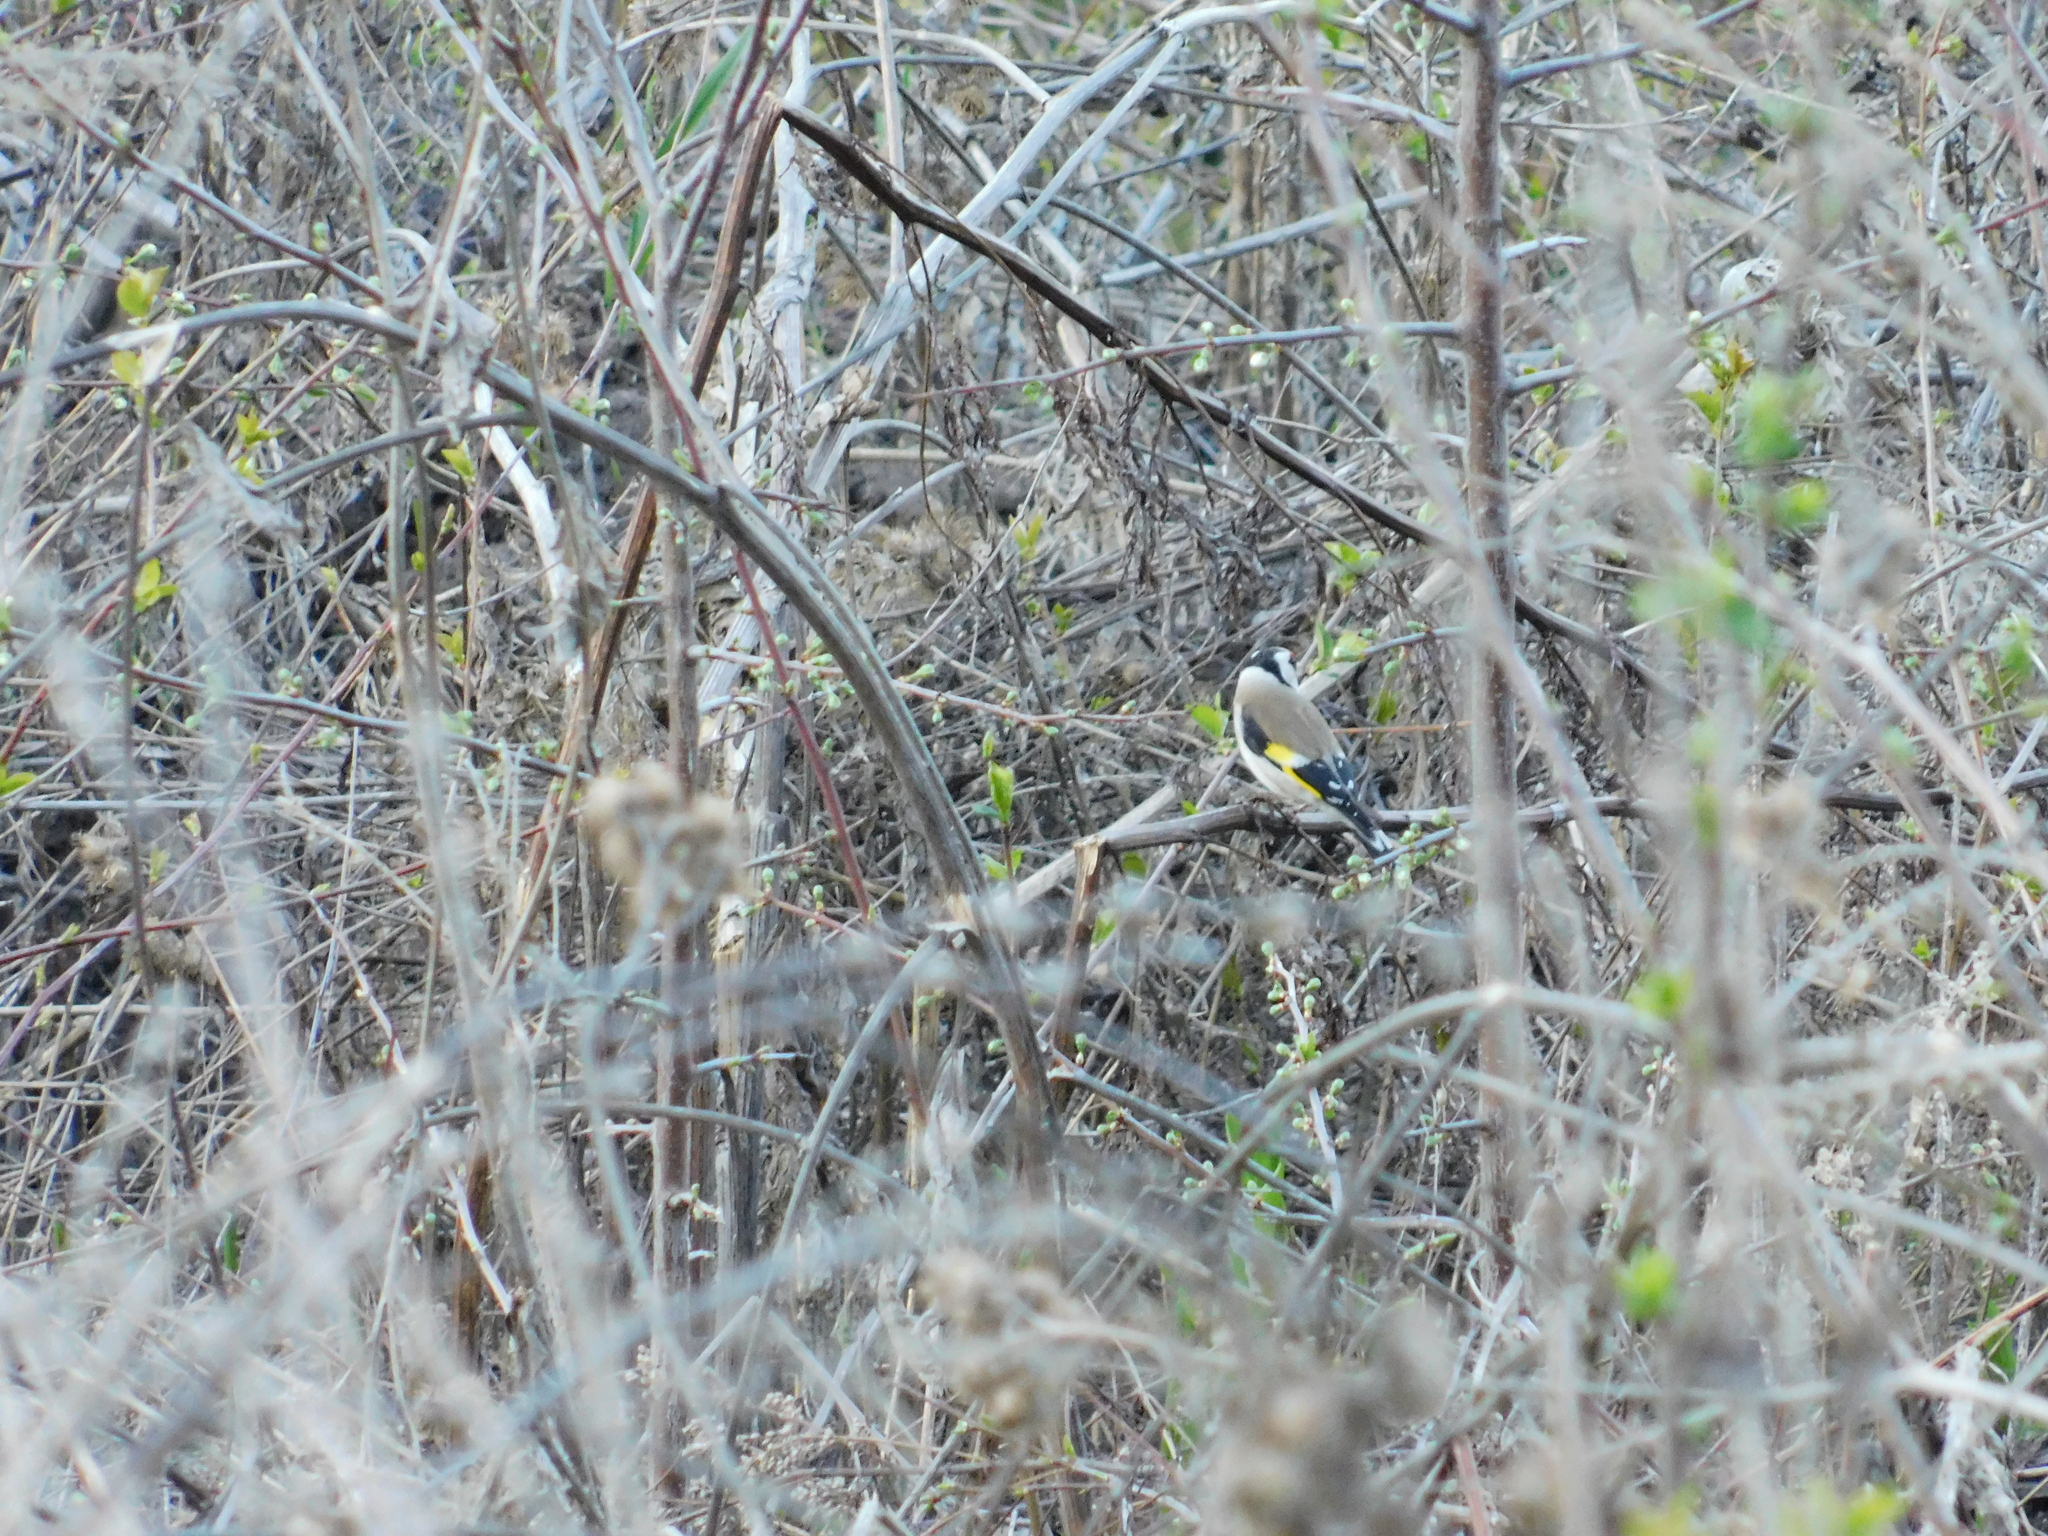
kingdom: Animalia
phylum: Chordata
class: Aves
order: Passeriformes
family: Fringillidae
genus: Carduelis
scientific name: Carduelis carduelis
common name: European goldfinch
